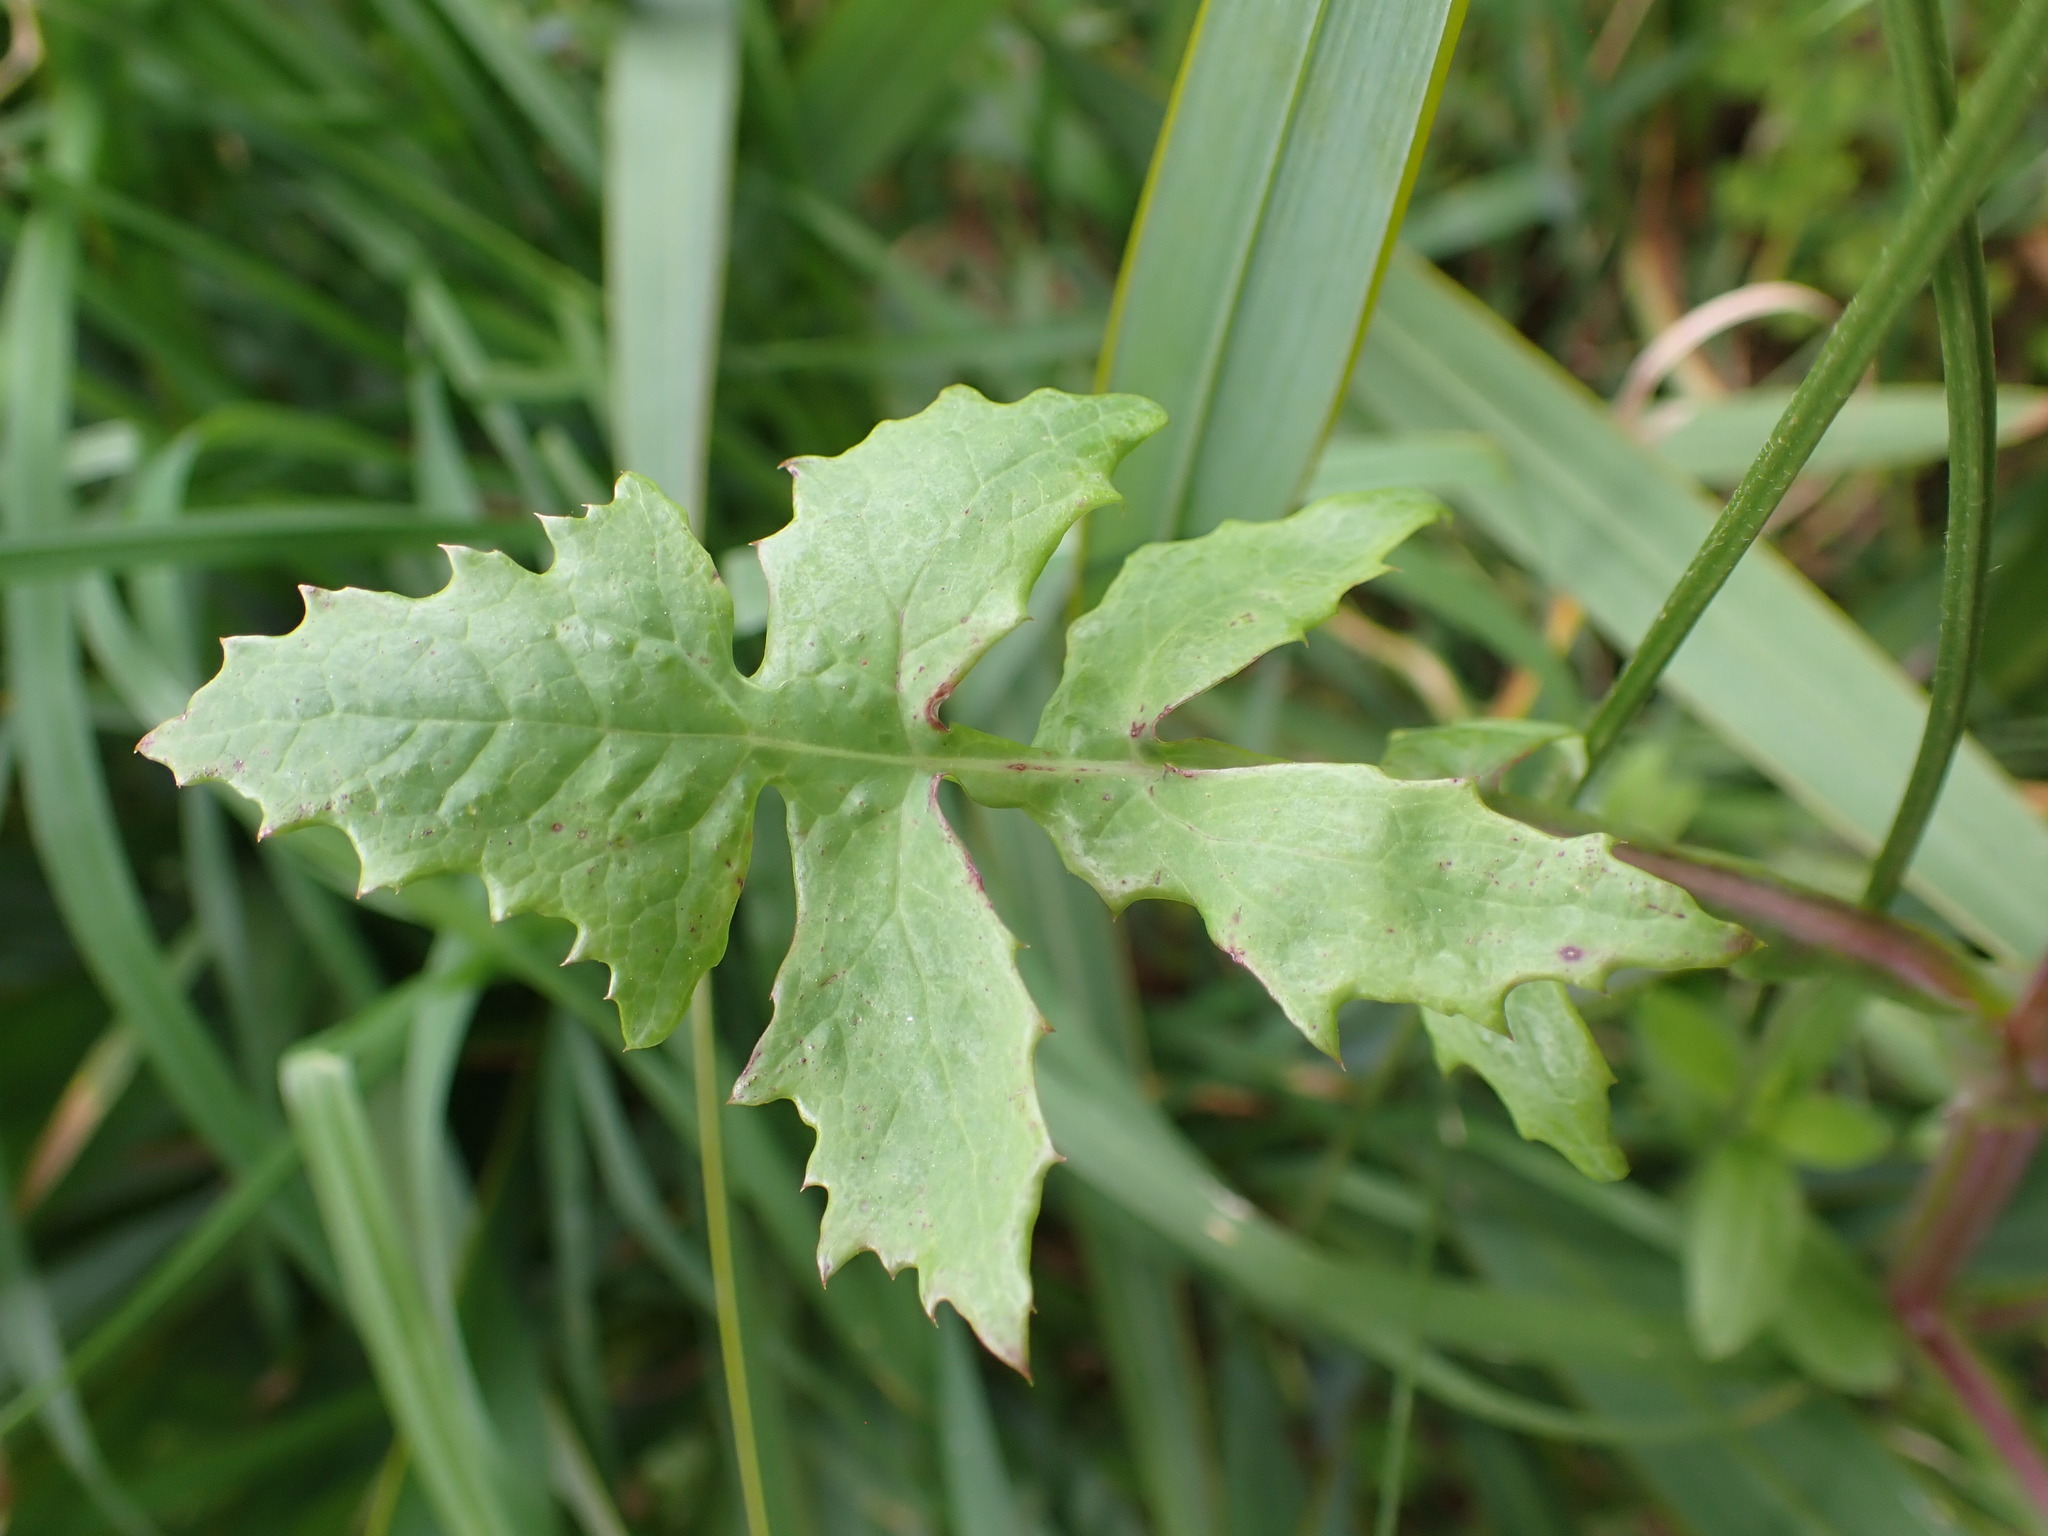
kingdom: Plantae
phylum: Tracheophyta
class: Magnoliopsida
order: Asterales
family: Asteraceae
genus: Sonchus
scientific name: Sonchus oleraceus
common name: Common sowthistle
